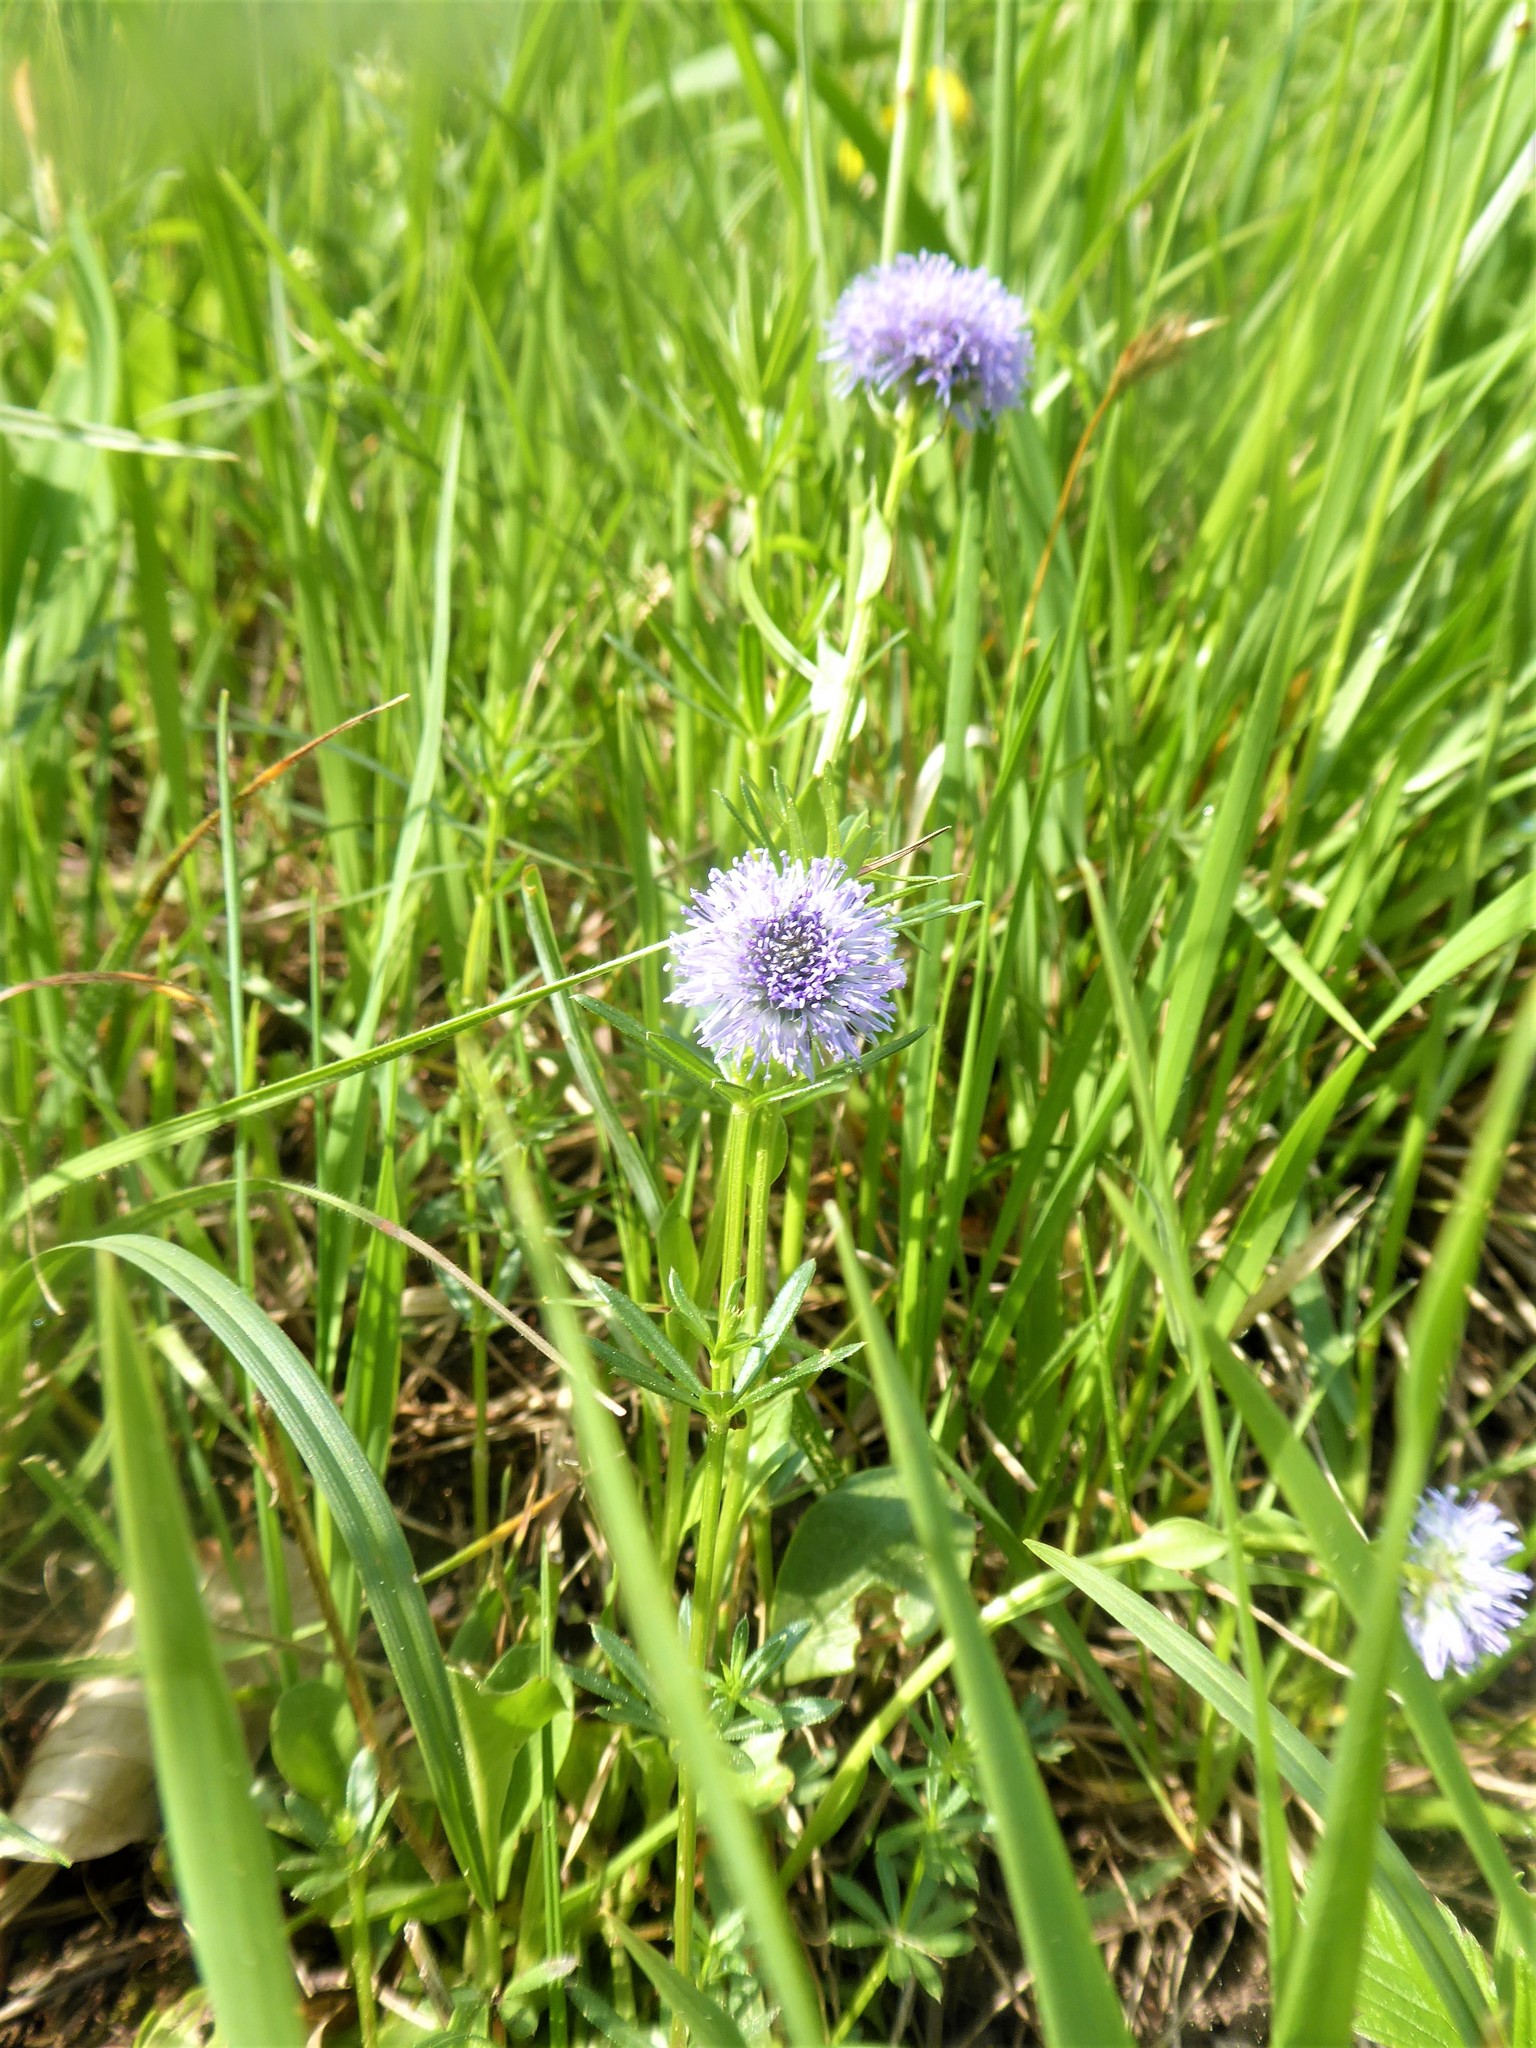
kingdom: Plantae
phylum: Tracheophyta
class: Magnoliopsida
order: Lamiales
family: Plantaginaceae
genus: Globularia
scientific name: Globularia bisnagarica
